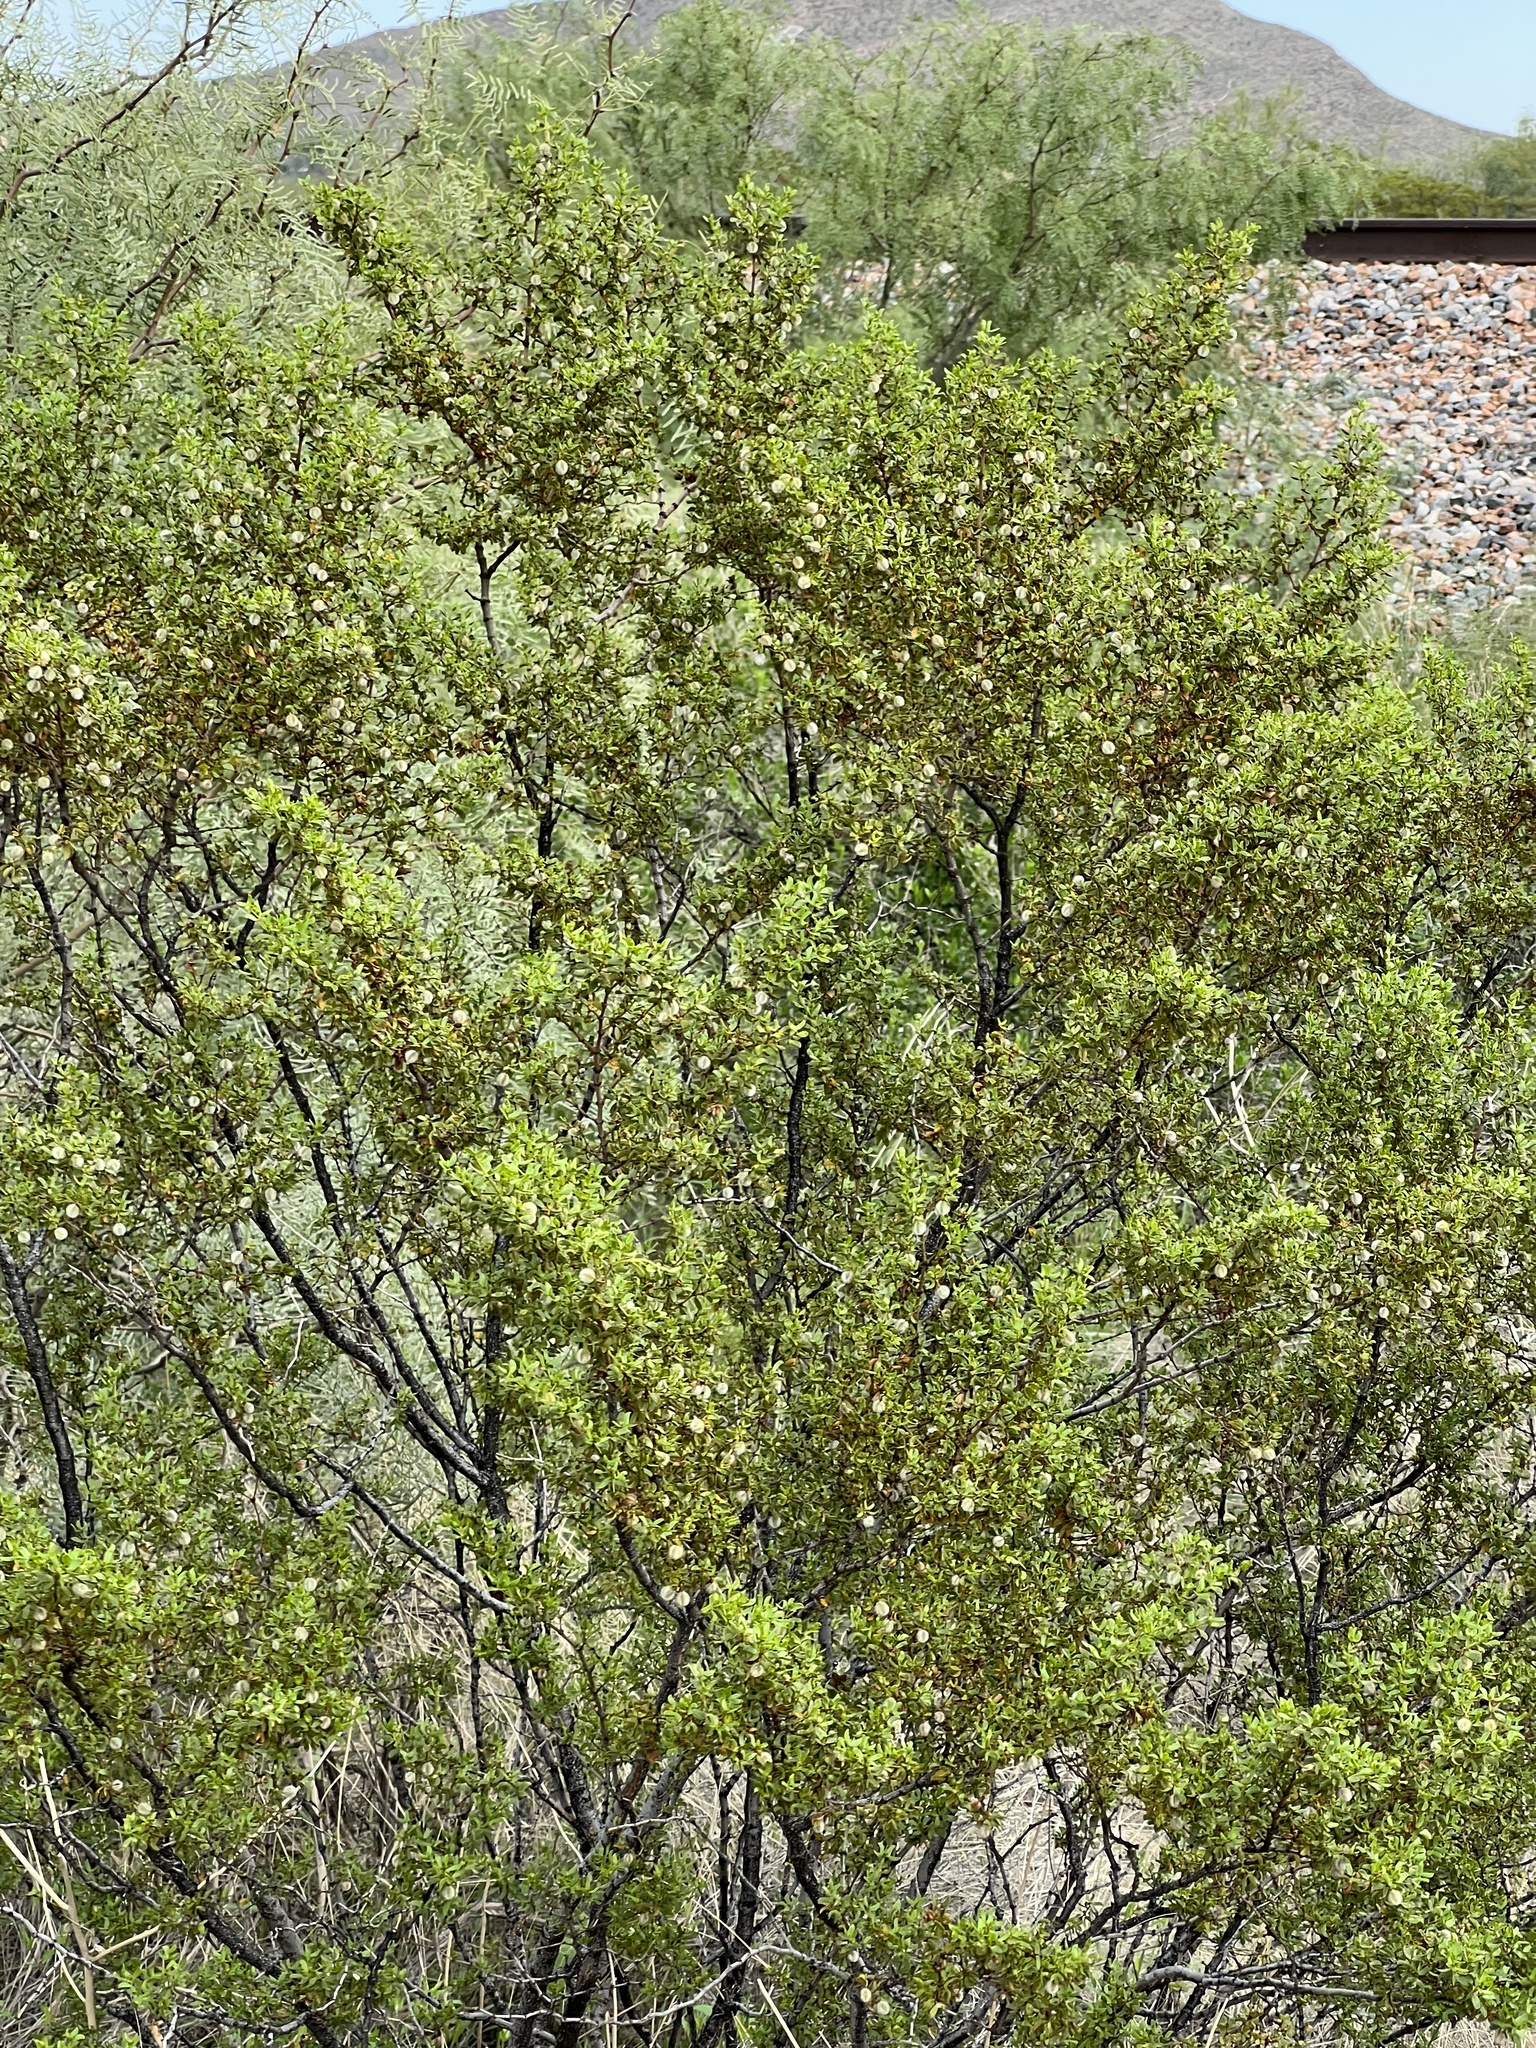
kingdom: Plantae
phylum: Tracheophyta
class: Magnoliopsida
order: Zygophyllales
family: Zygophyllaceae
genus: Larrea
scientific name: Larrea tridentata
